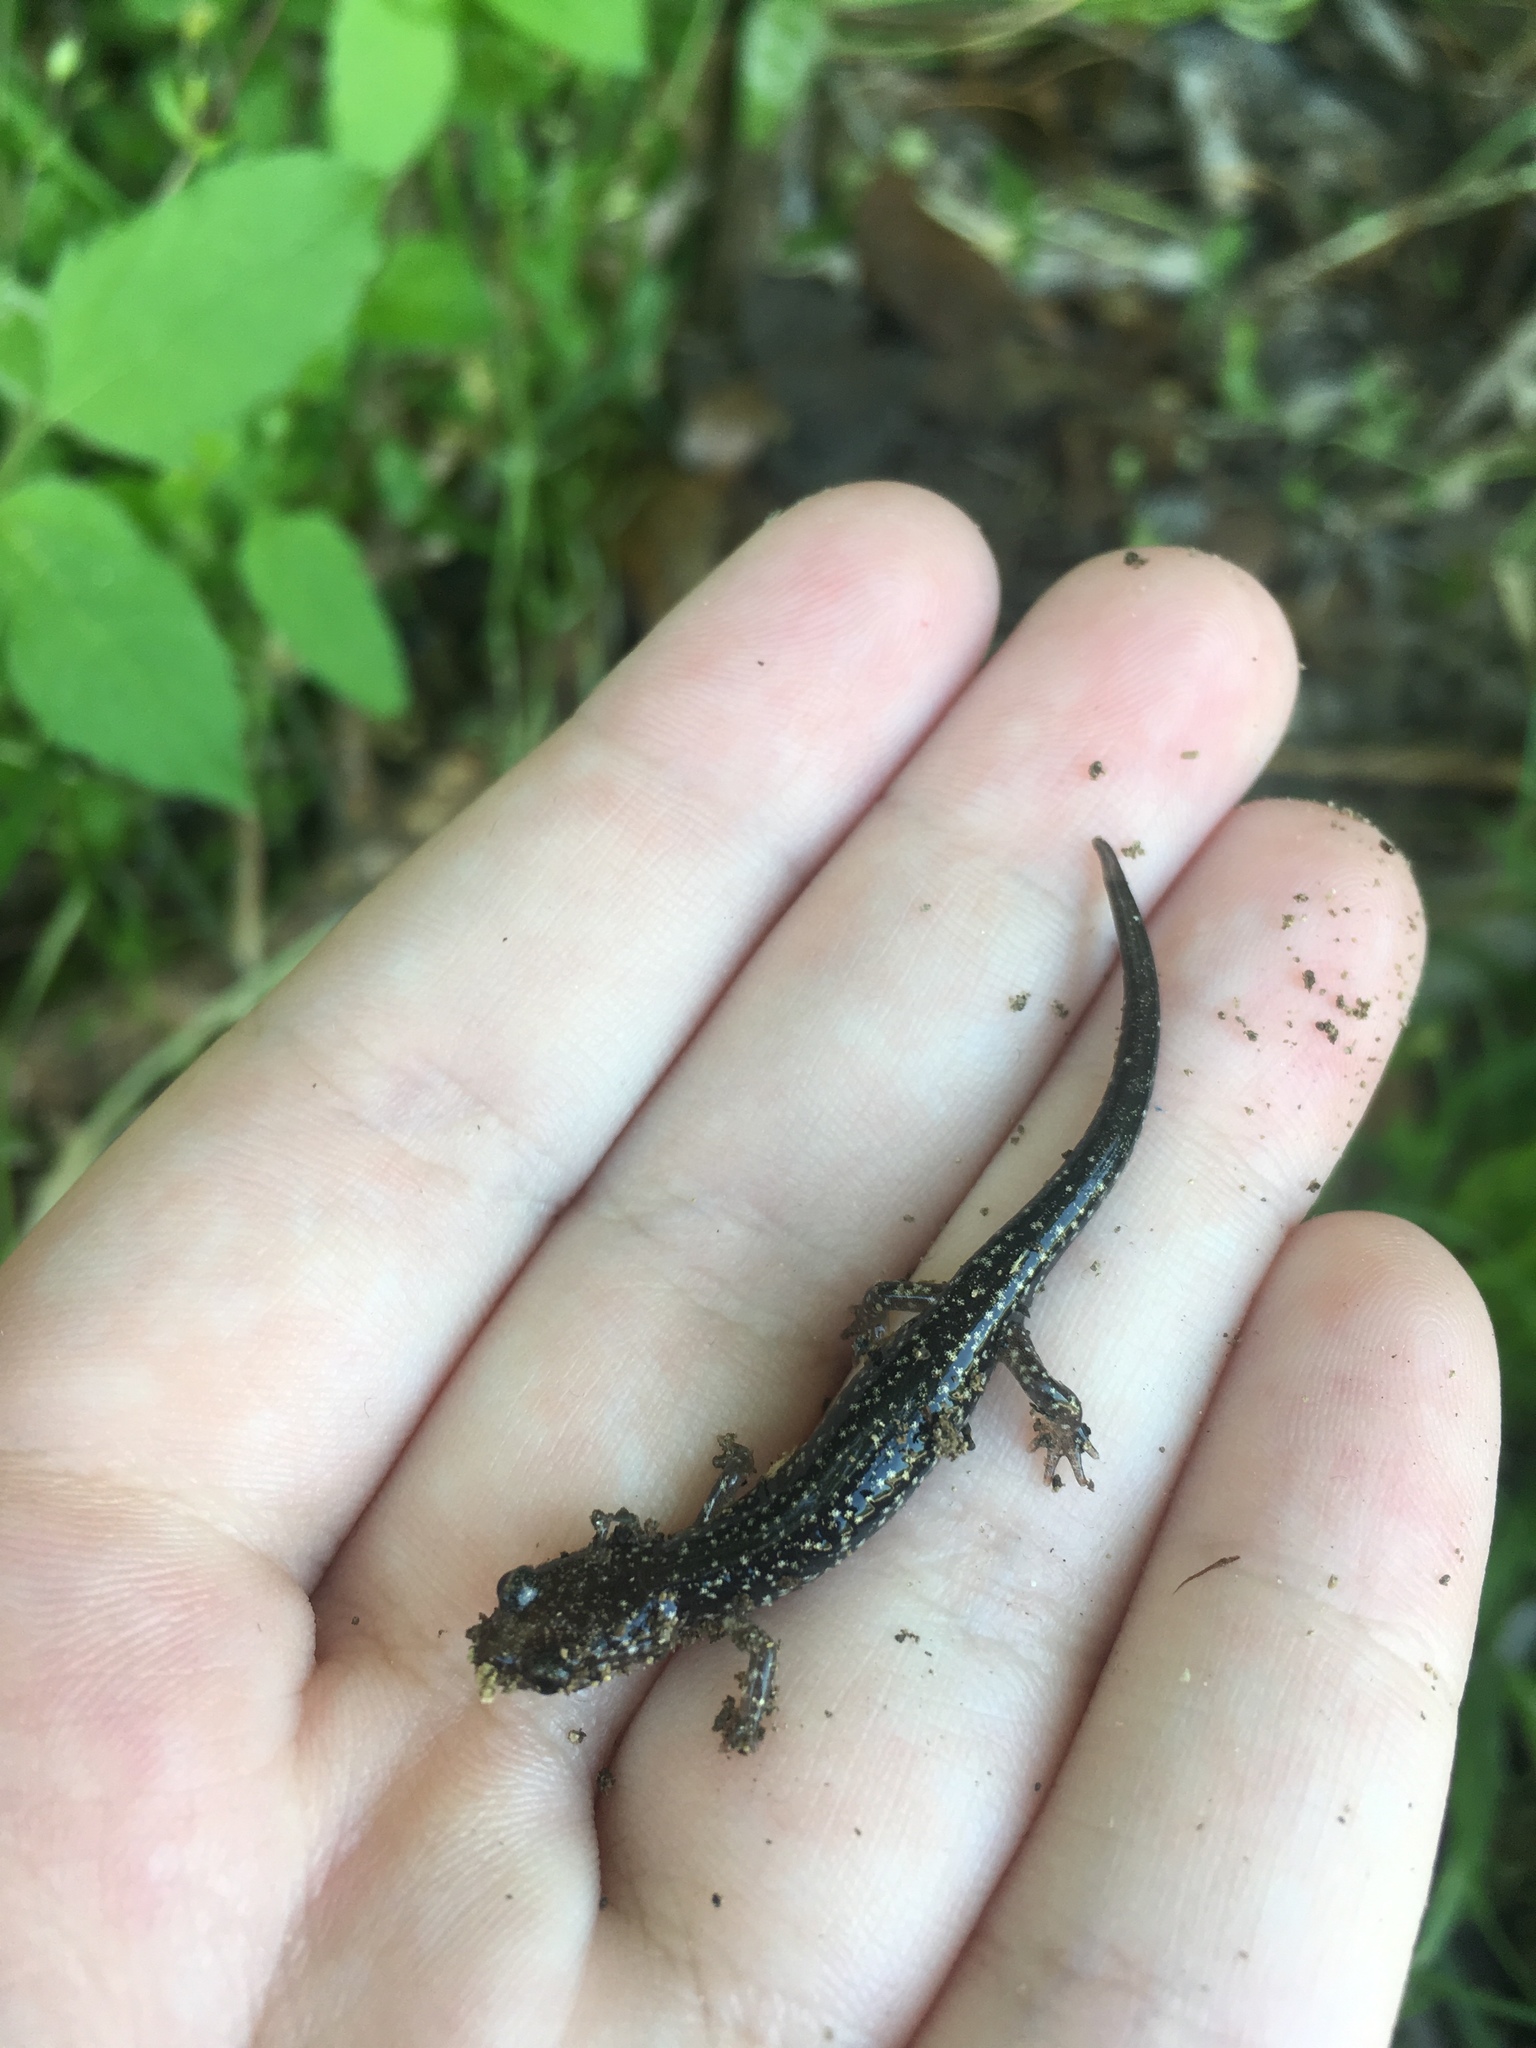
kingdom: Animalia
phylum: Chordata
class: Amphibia
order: Caudata
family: Plethodontidae
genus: Plethodon
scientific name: Plethodon albagula
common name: Western slimy salamander
